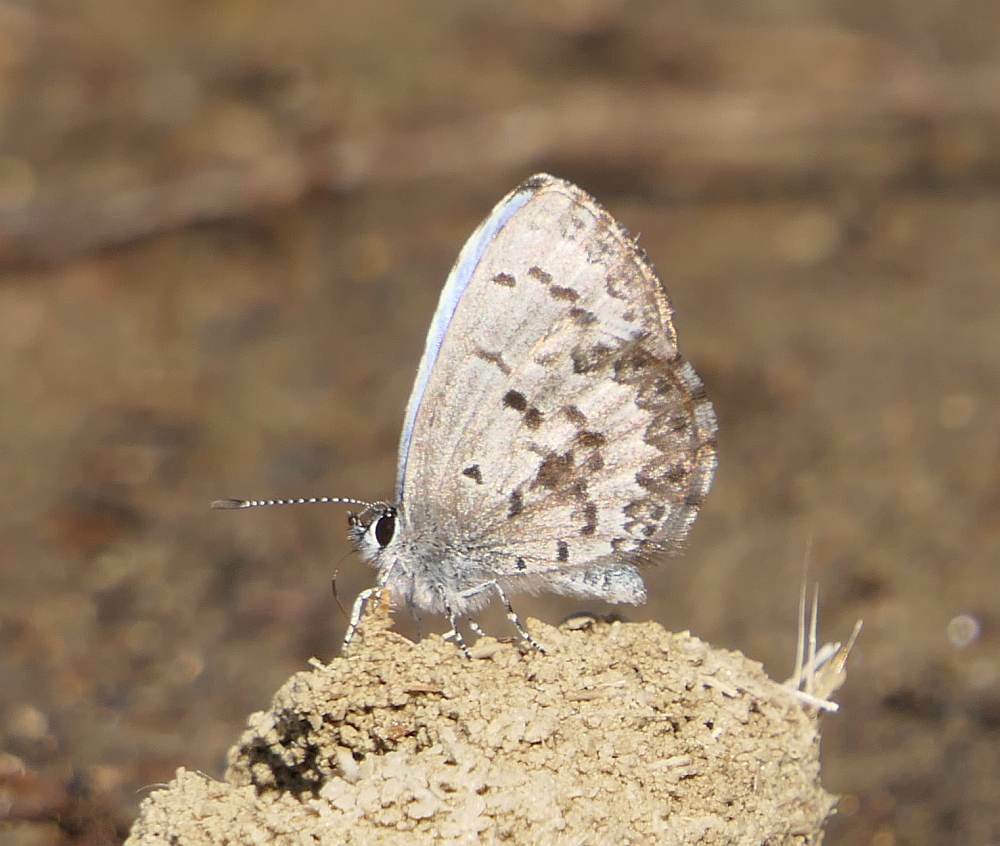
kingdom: Animalia
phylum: Arthropoda
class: Insecta
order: Lepidoptera
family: Lycaenidae
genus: Celastrina
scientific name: Celastrina lucia
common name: Lucia azure
